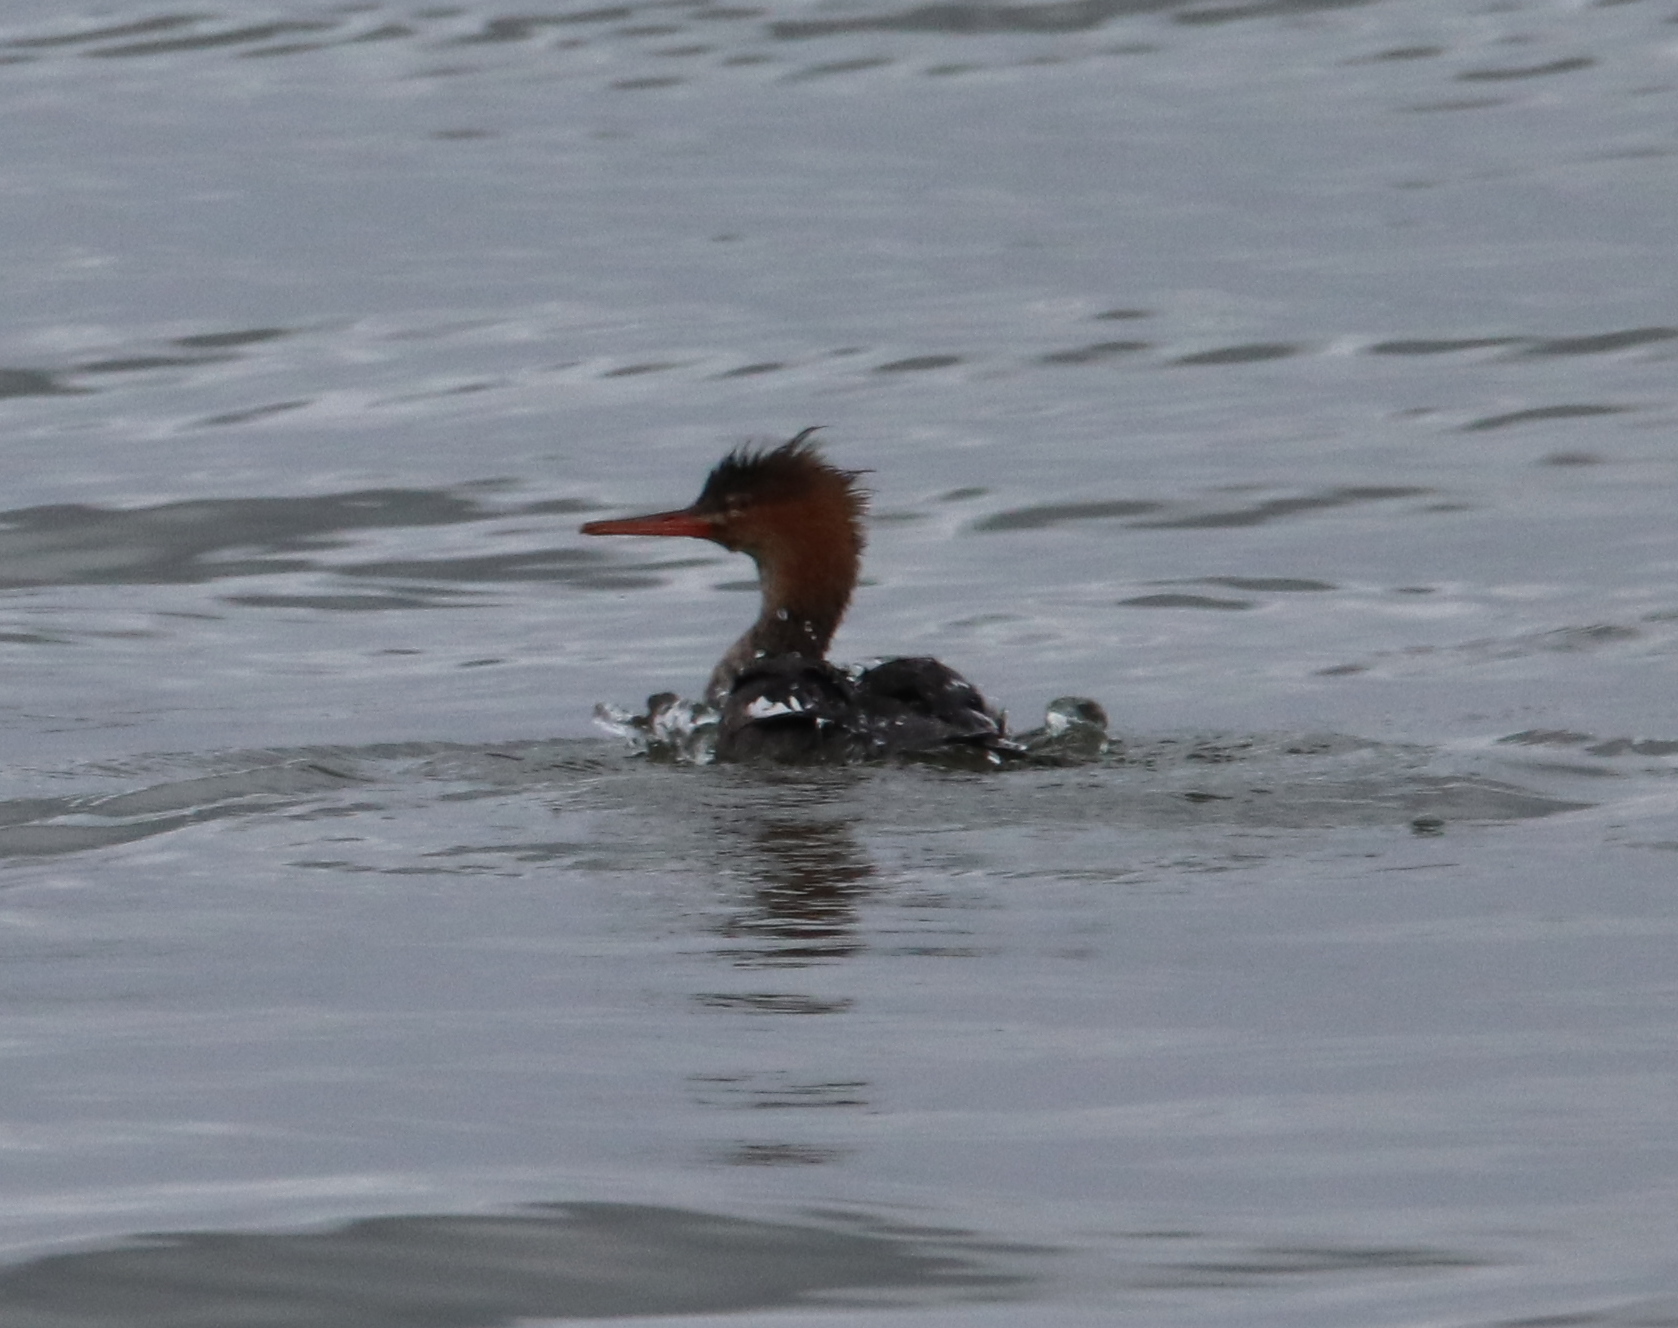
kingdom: Animalia
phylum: Chordata
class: Aves
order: Anseriformes
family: Anatidae
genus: Mergus
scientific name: Mergus serrator
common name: Red-breasted merganser
